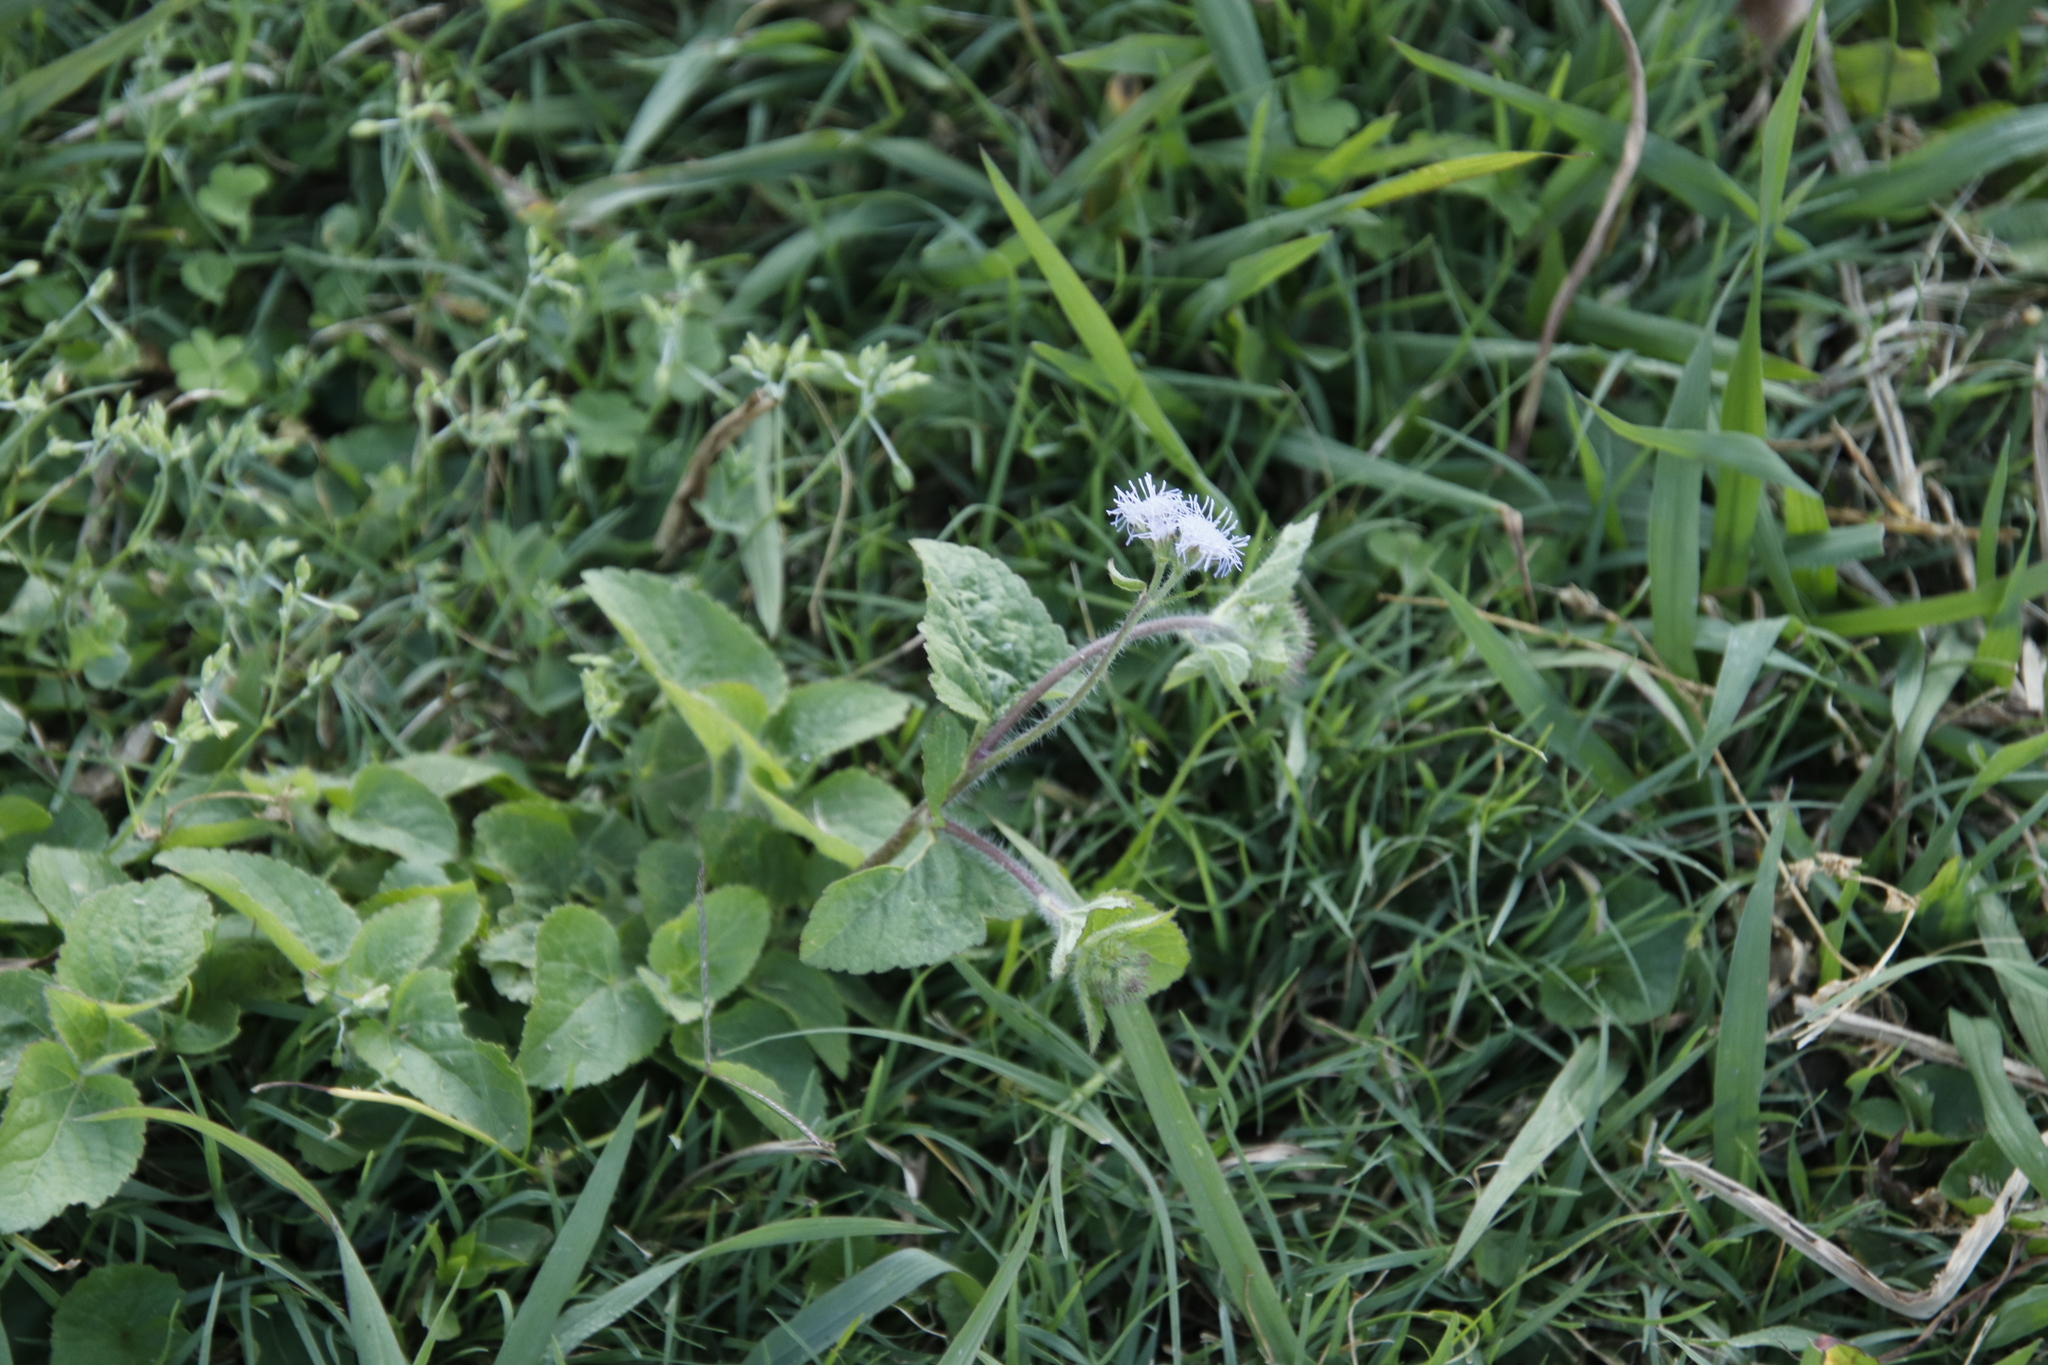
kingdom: Plantae
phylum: Tracheophyta
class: Magnoliopsida
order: Asterales
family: Asteraceae
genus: Ageratum
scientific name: Ageratum houstonianum
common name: Bluemink
